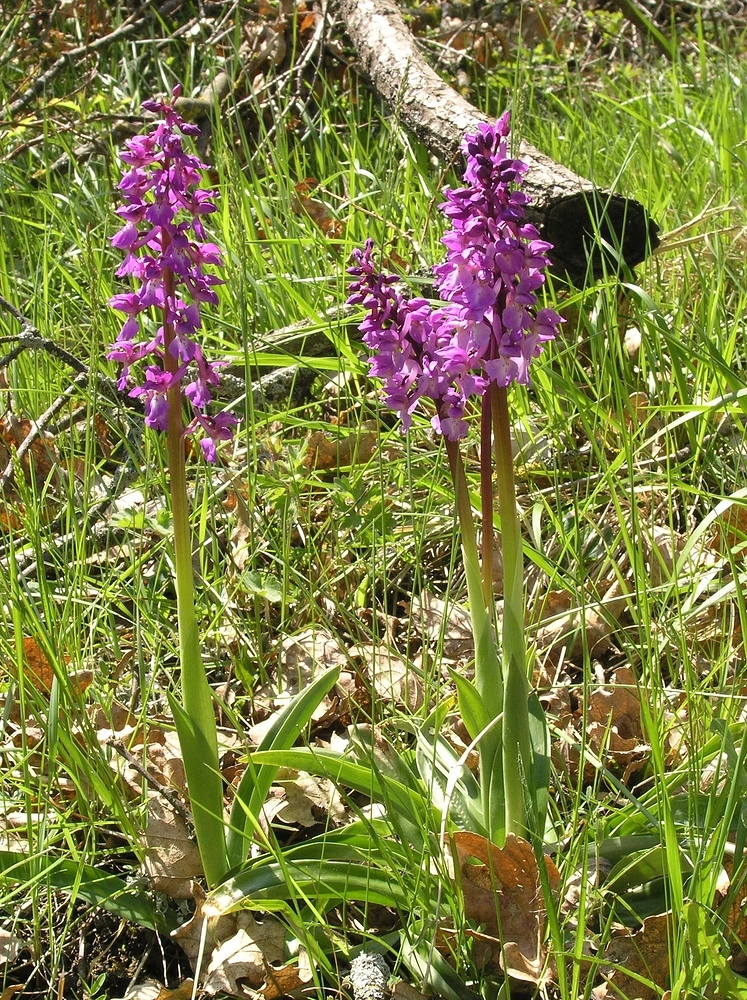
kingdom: Plantae
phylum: Tracheophyta
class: Liliopsida
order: Asparagales
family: Orchidaceae
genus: Orchis
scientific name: Orchis mascula
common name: Early-purple orchid
